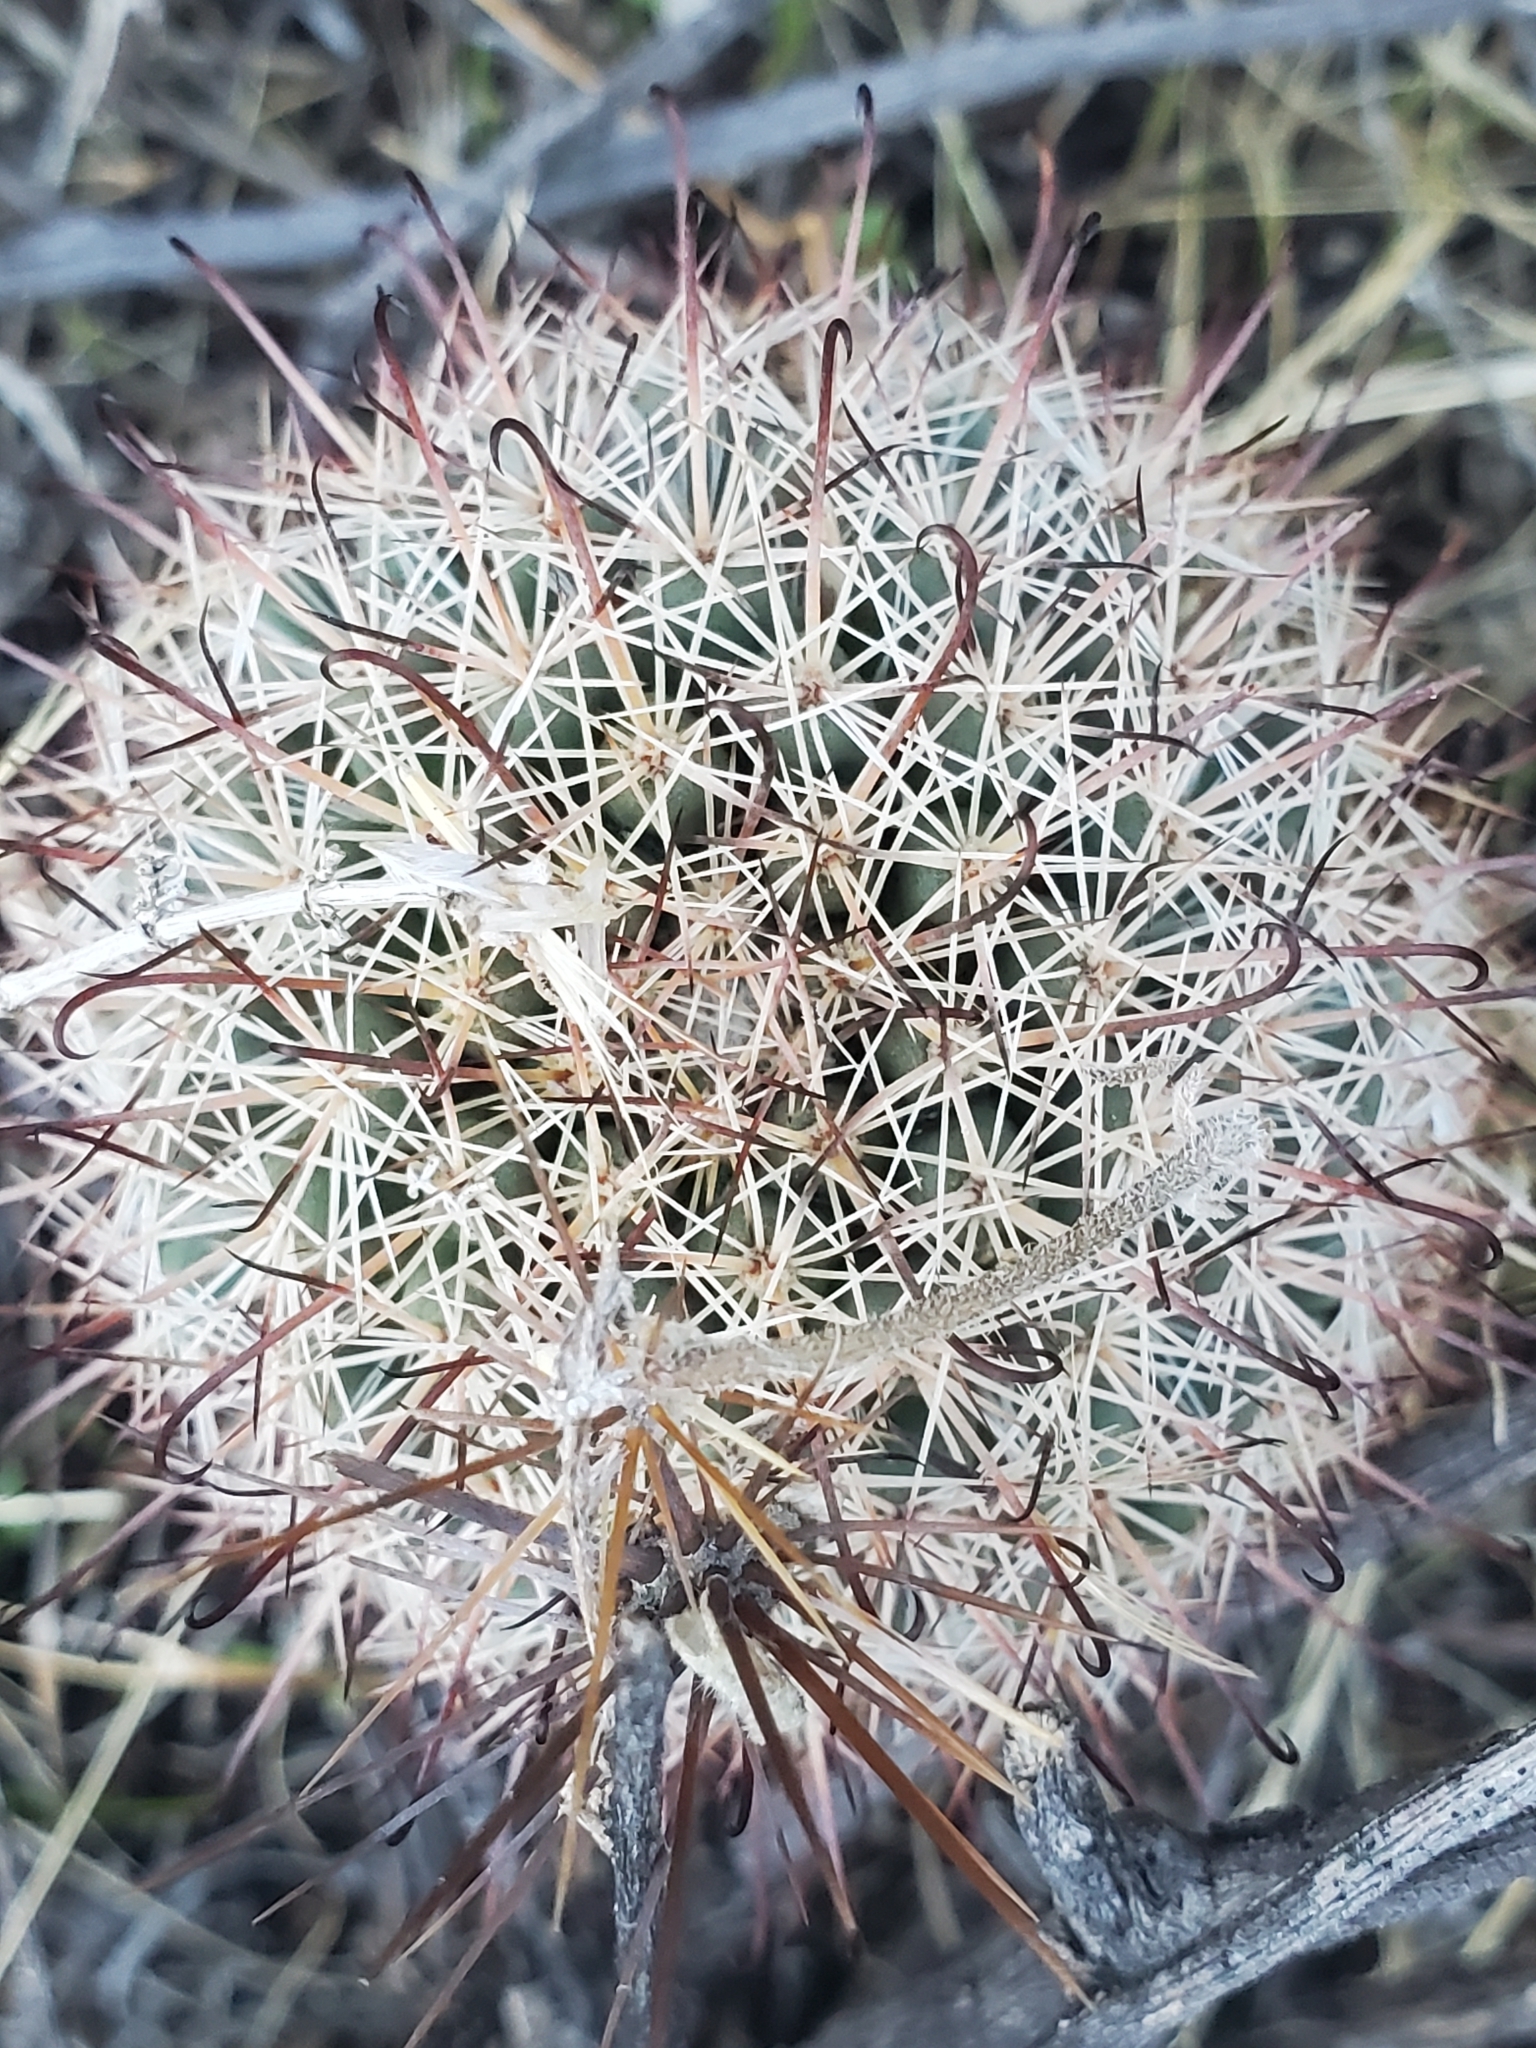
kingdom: Plantae
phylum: Tracheophyta
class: Magnoliopsida
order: Caryophyllales
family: Cactaceae
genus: Cochemiea
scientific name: Cochemiea dioica
